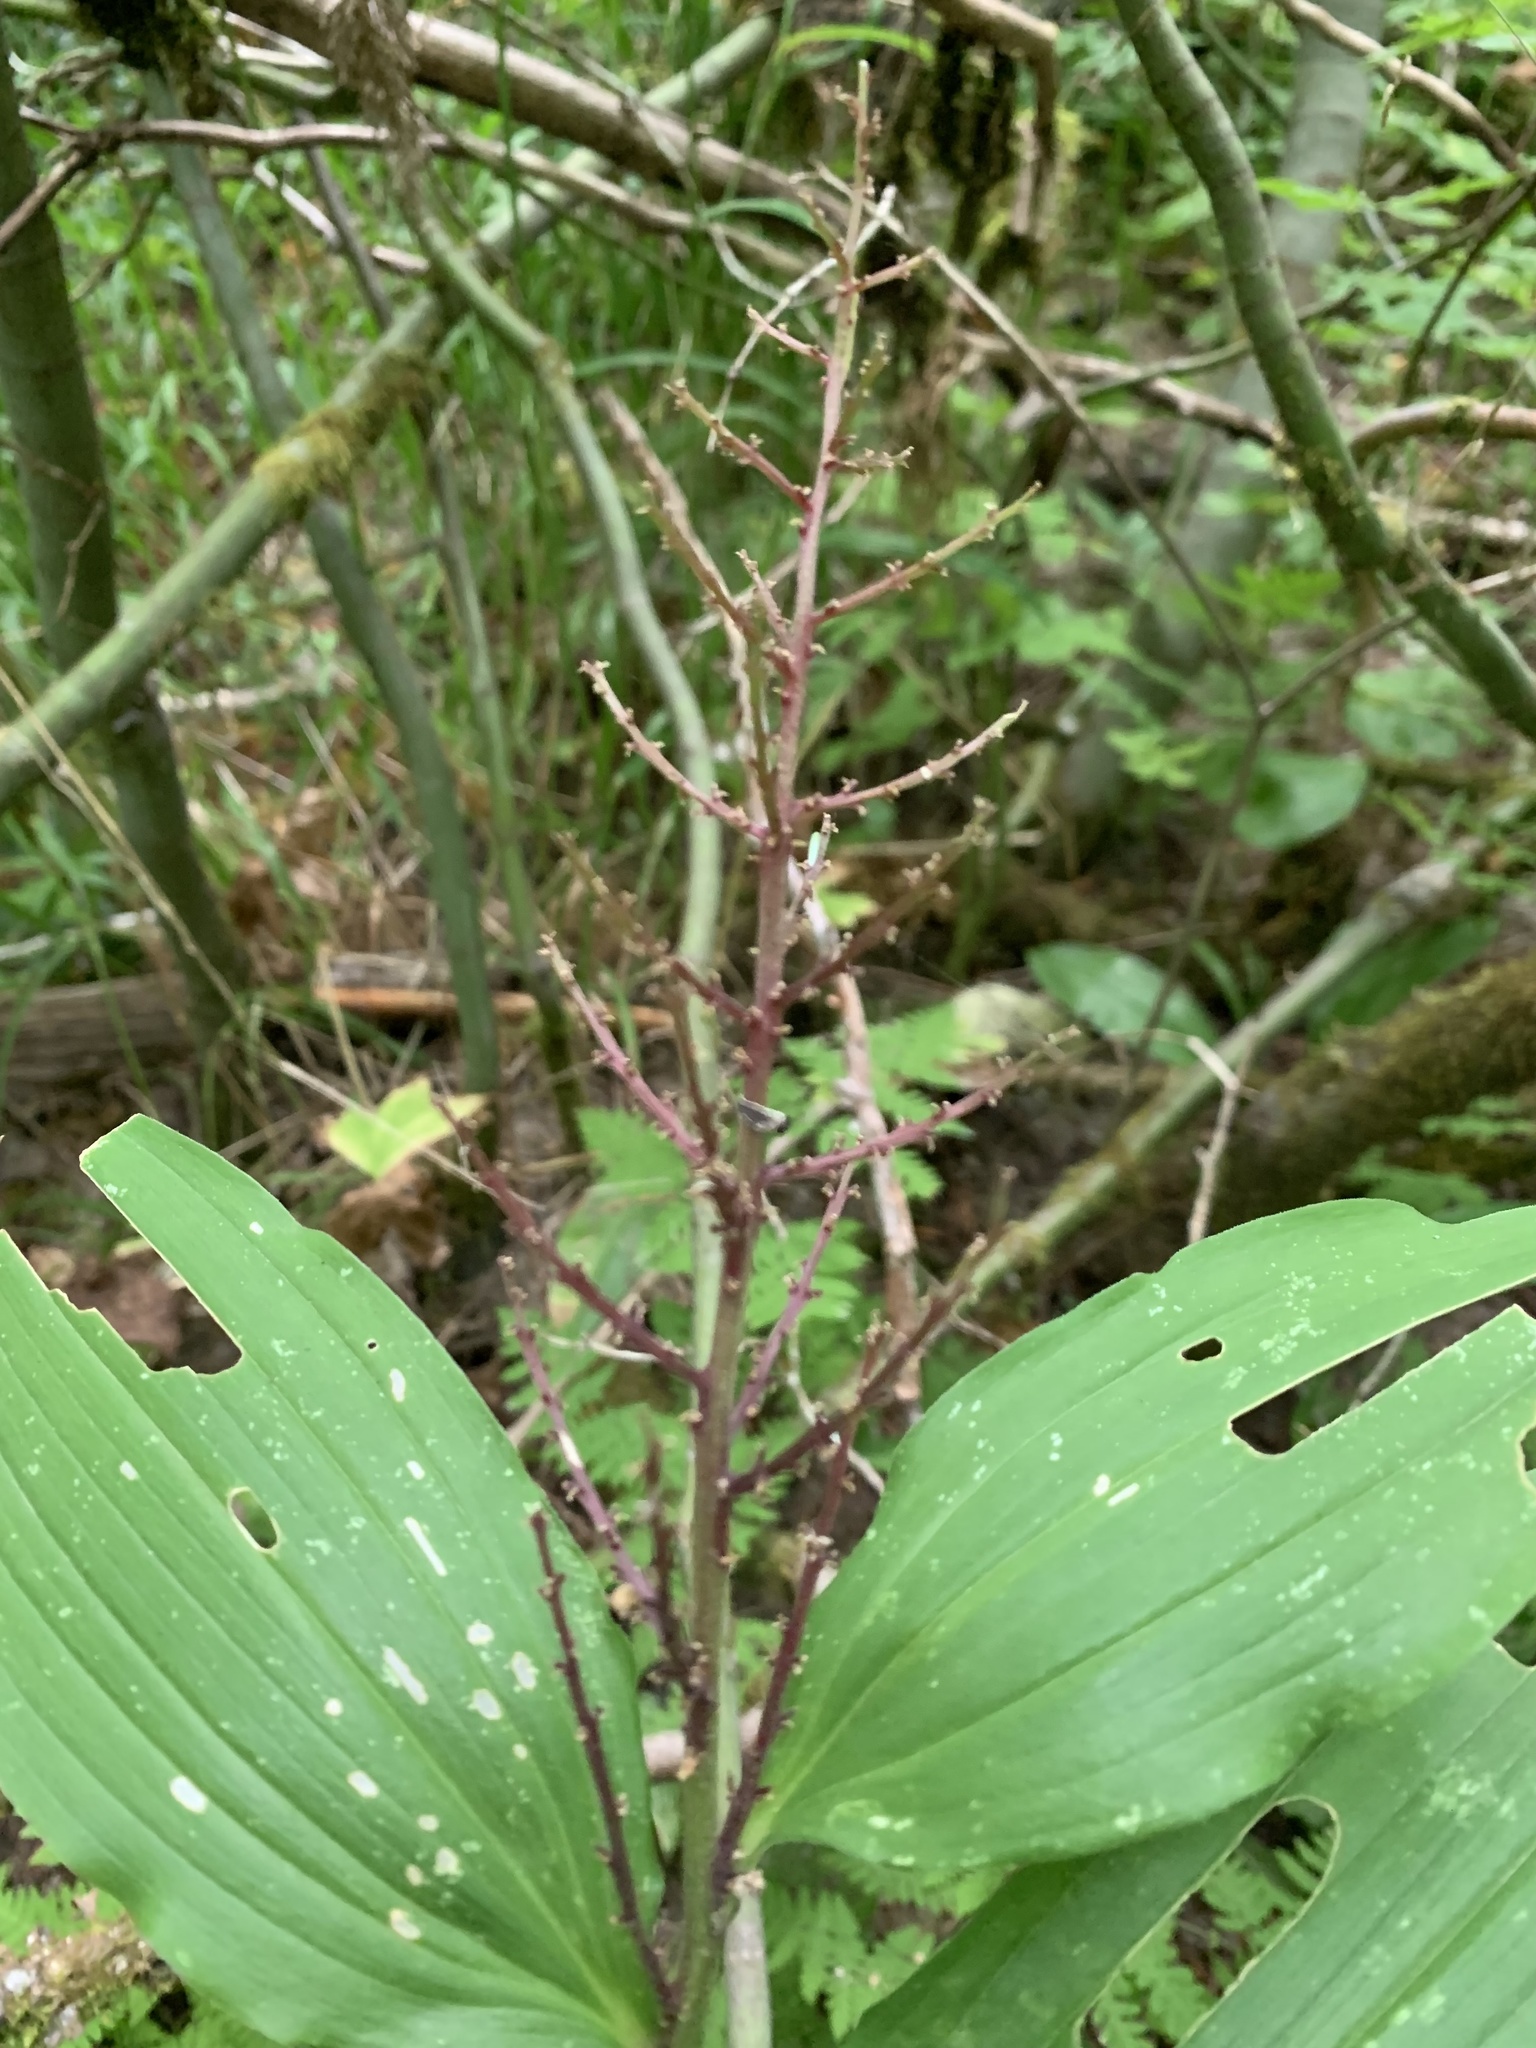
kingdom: Plantae
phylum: Tracheophyta
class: Liliopsida
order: Asparagales
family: Asparagaceae
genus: Maianthemum
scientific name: Maianthemum racemosum
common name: False spikenard
